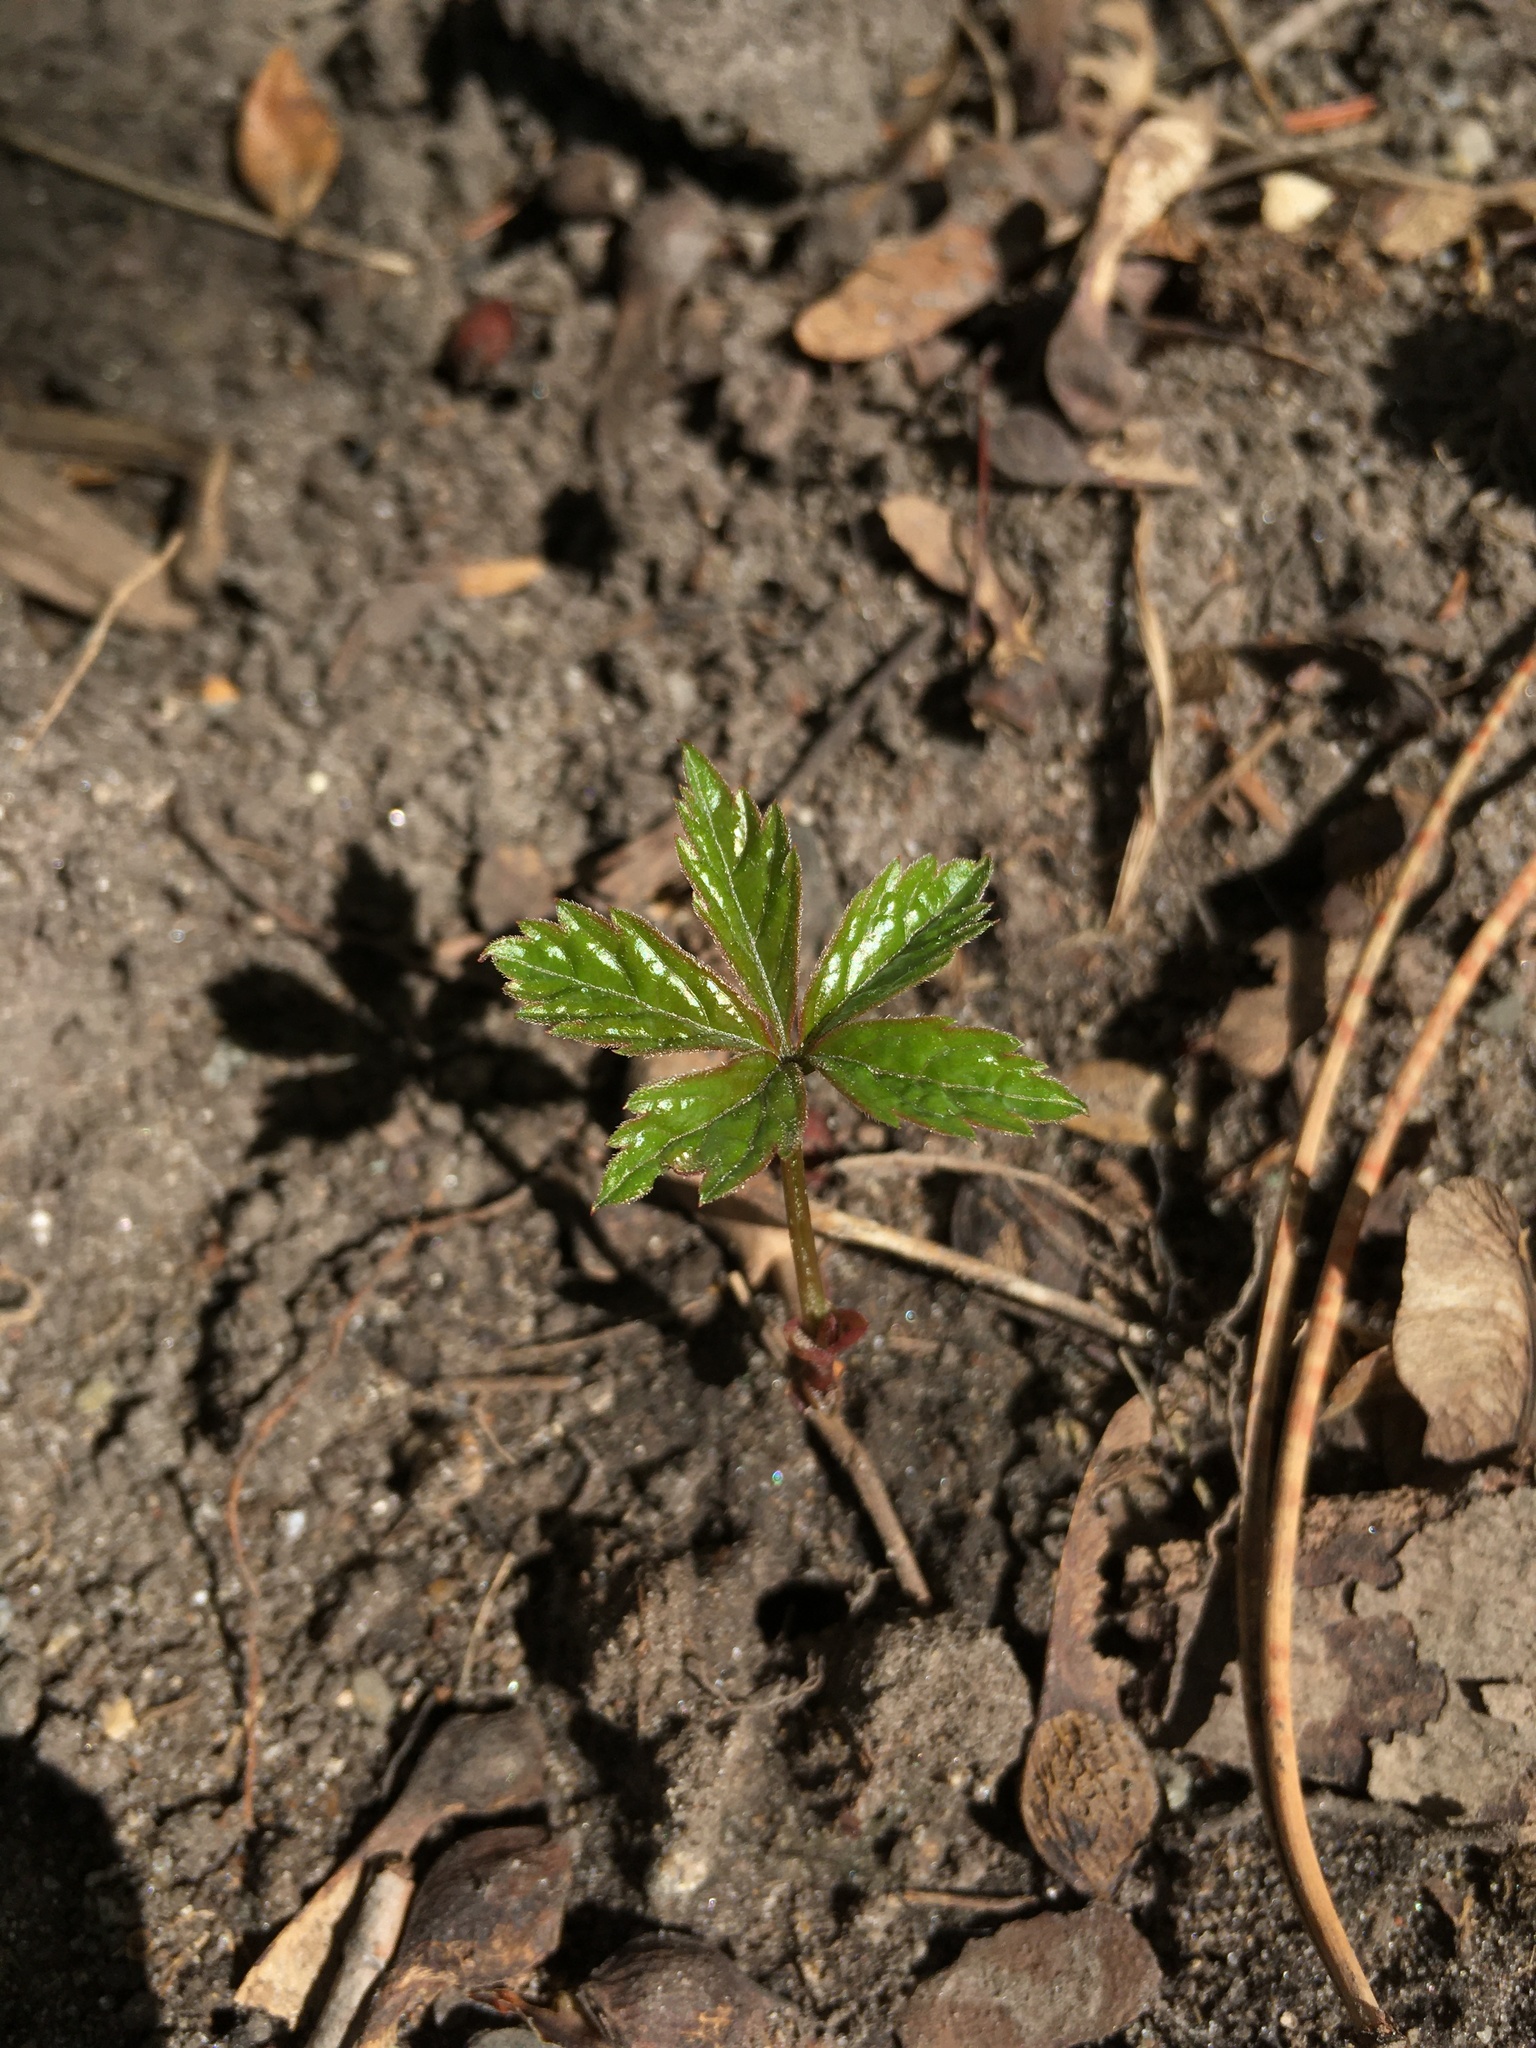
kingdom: Plantae
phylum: Tracheophyta
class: Magnoliopsida
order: Vitales
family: Vitaceae
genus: Parthenocissus
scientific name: Parthenocissus quinquefolia
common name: Virginia-creeper
